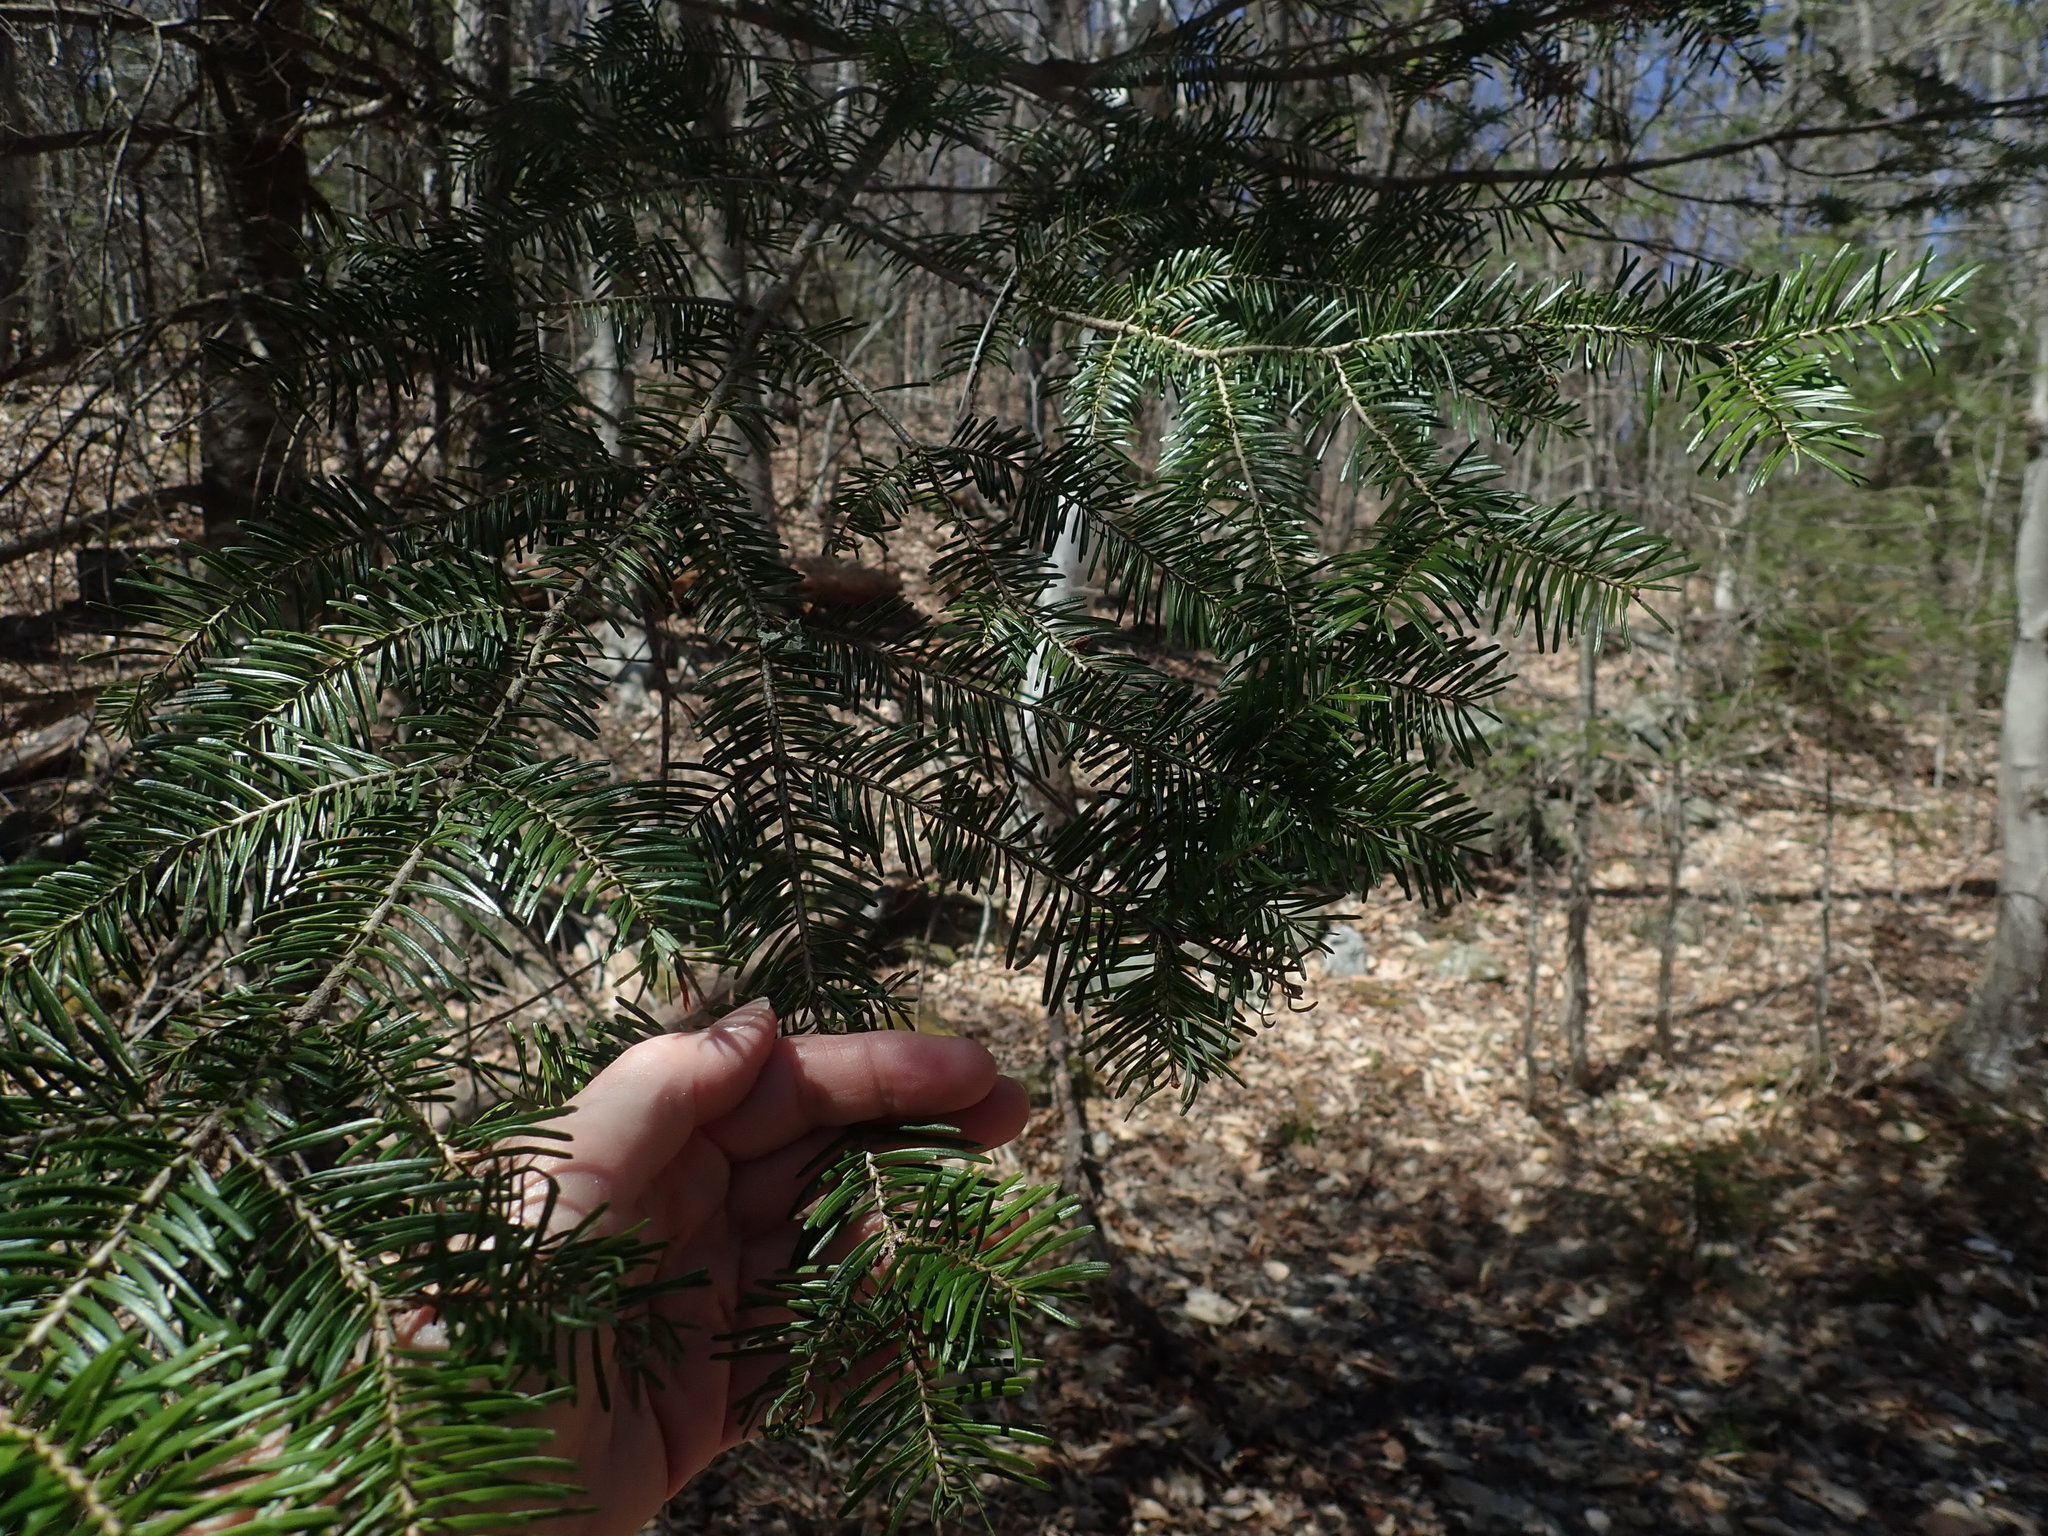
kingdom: Plantae
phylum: Tracheophyta
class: Pinopsida
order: Pinales
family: Pinaceae
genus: Abies
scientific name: Abies balsamea
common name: Balsam fir
